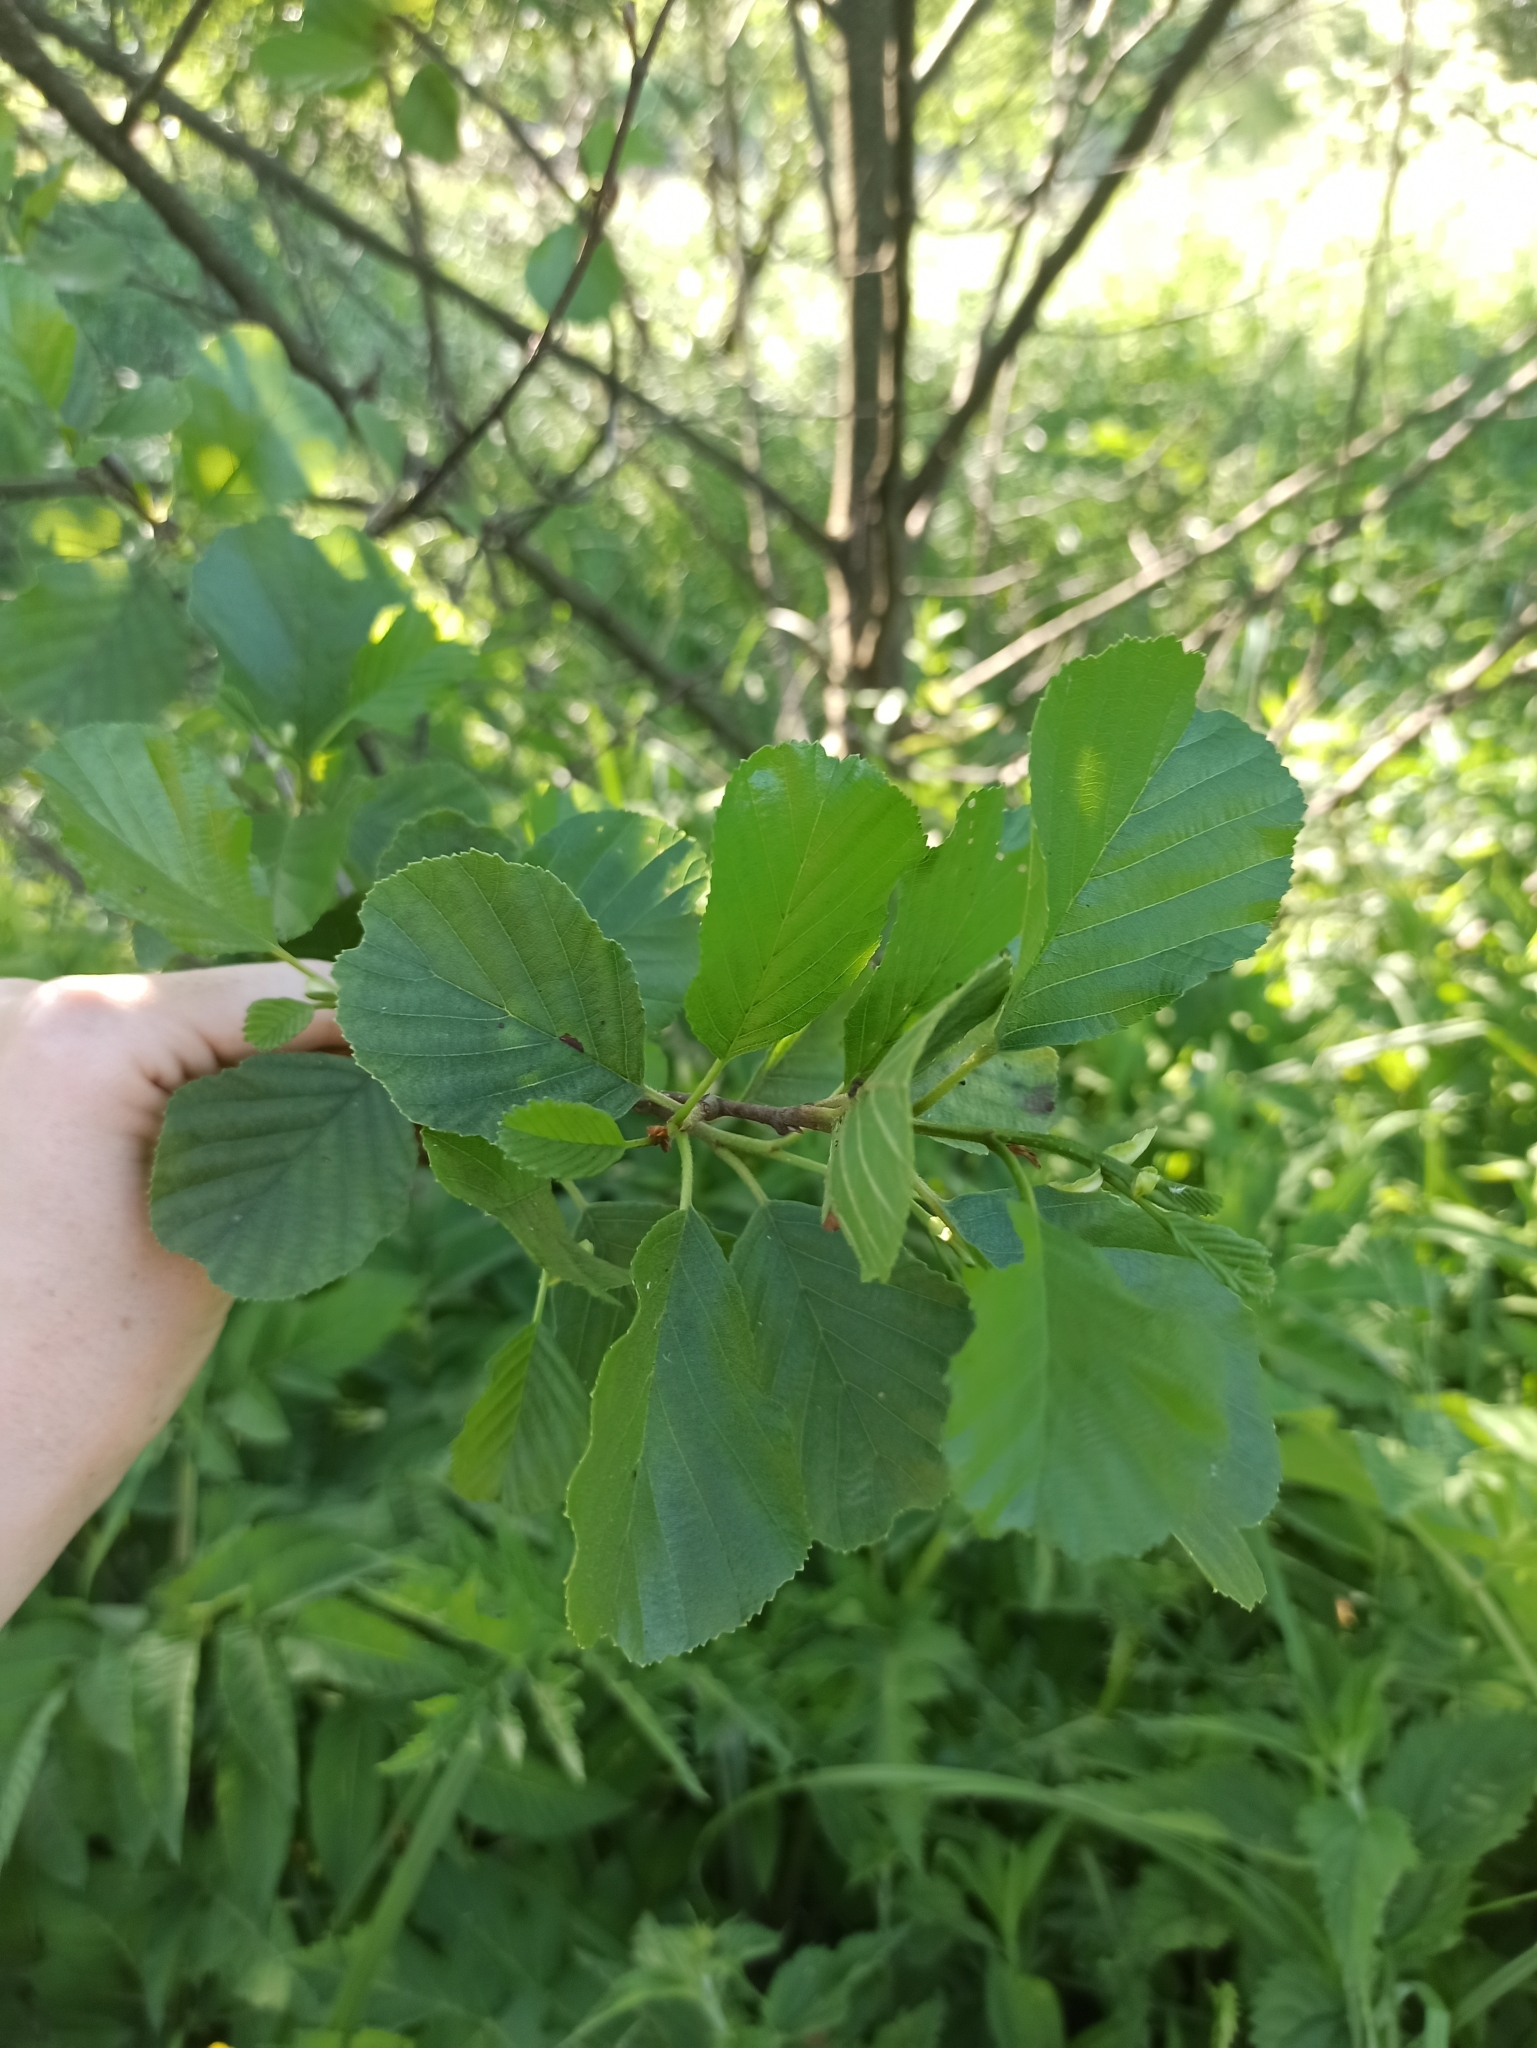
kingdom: Plantae
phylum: Tracheophyta
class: Magnoliopsida
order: Fagales
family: Betulaceae
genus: Alnus
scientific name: Alnus glutinosa
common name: Black alder
